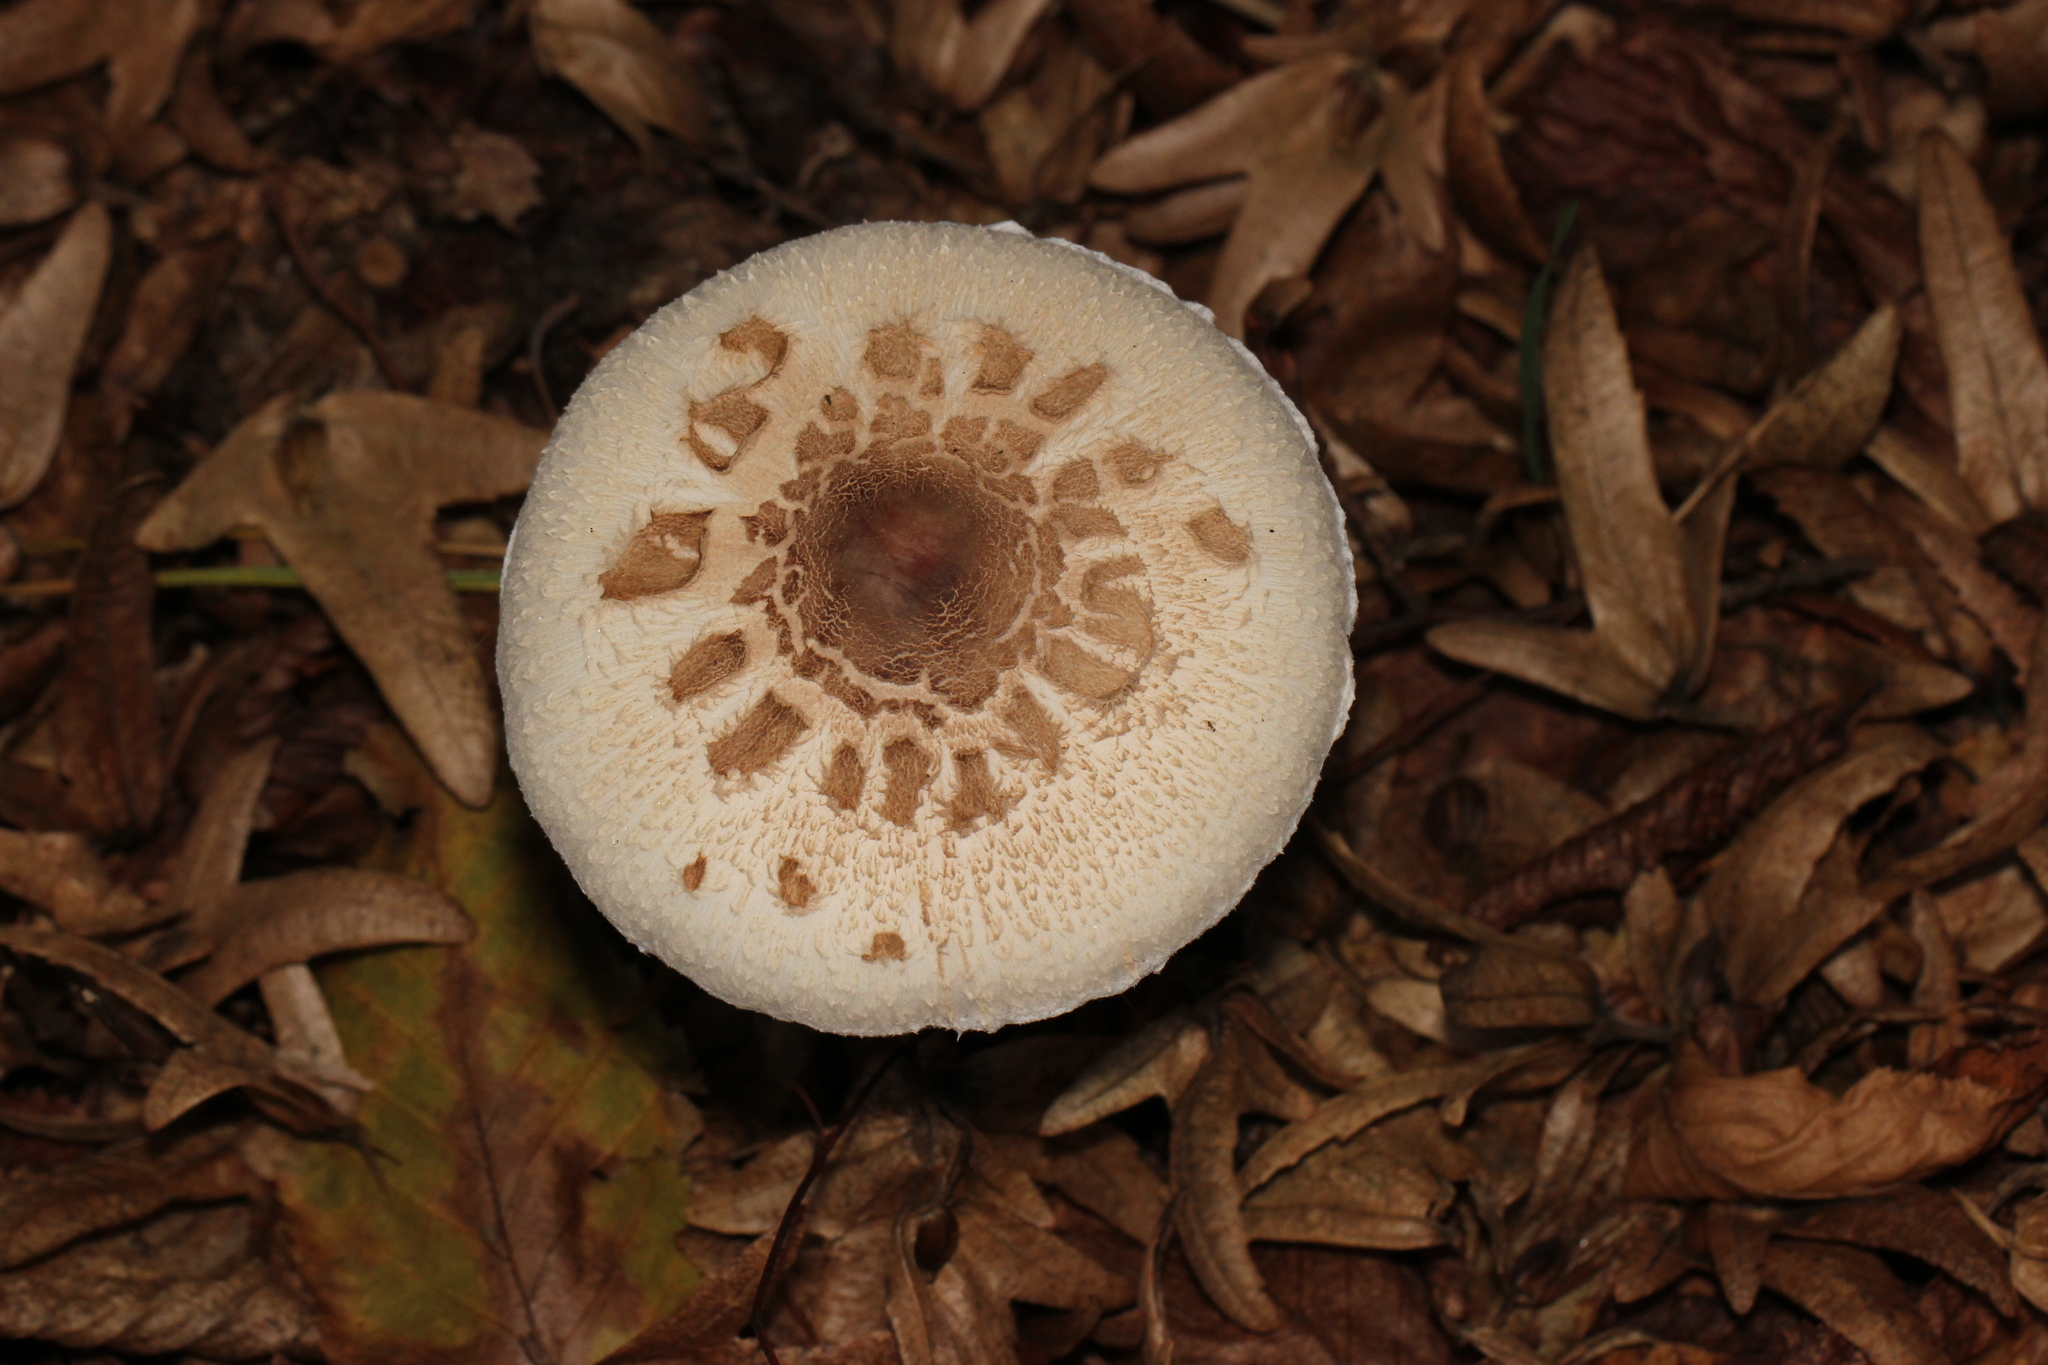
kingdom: Fungi
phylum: Basidiomycota
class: Agaricomycetes
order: Agaricales
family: Agaricaceae
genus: Macrolepiota
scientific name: Macrolepiota procera
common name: Parasol
